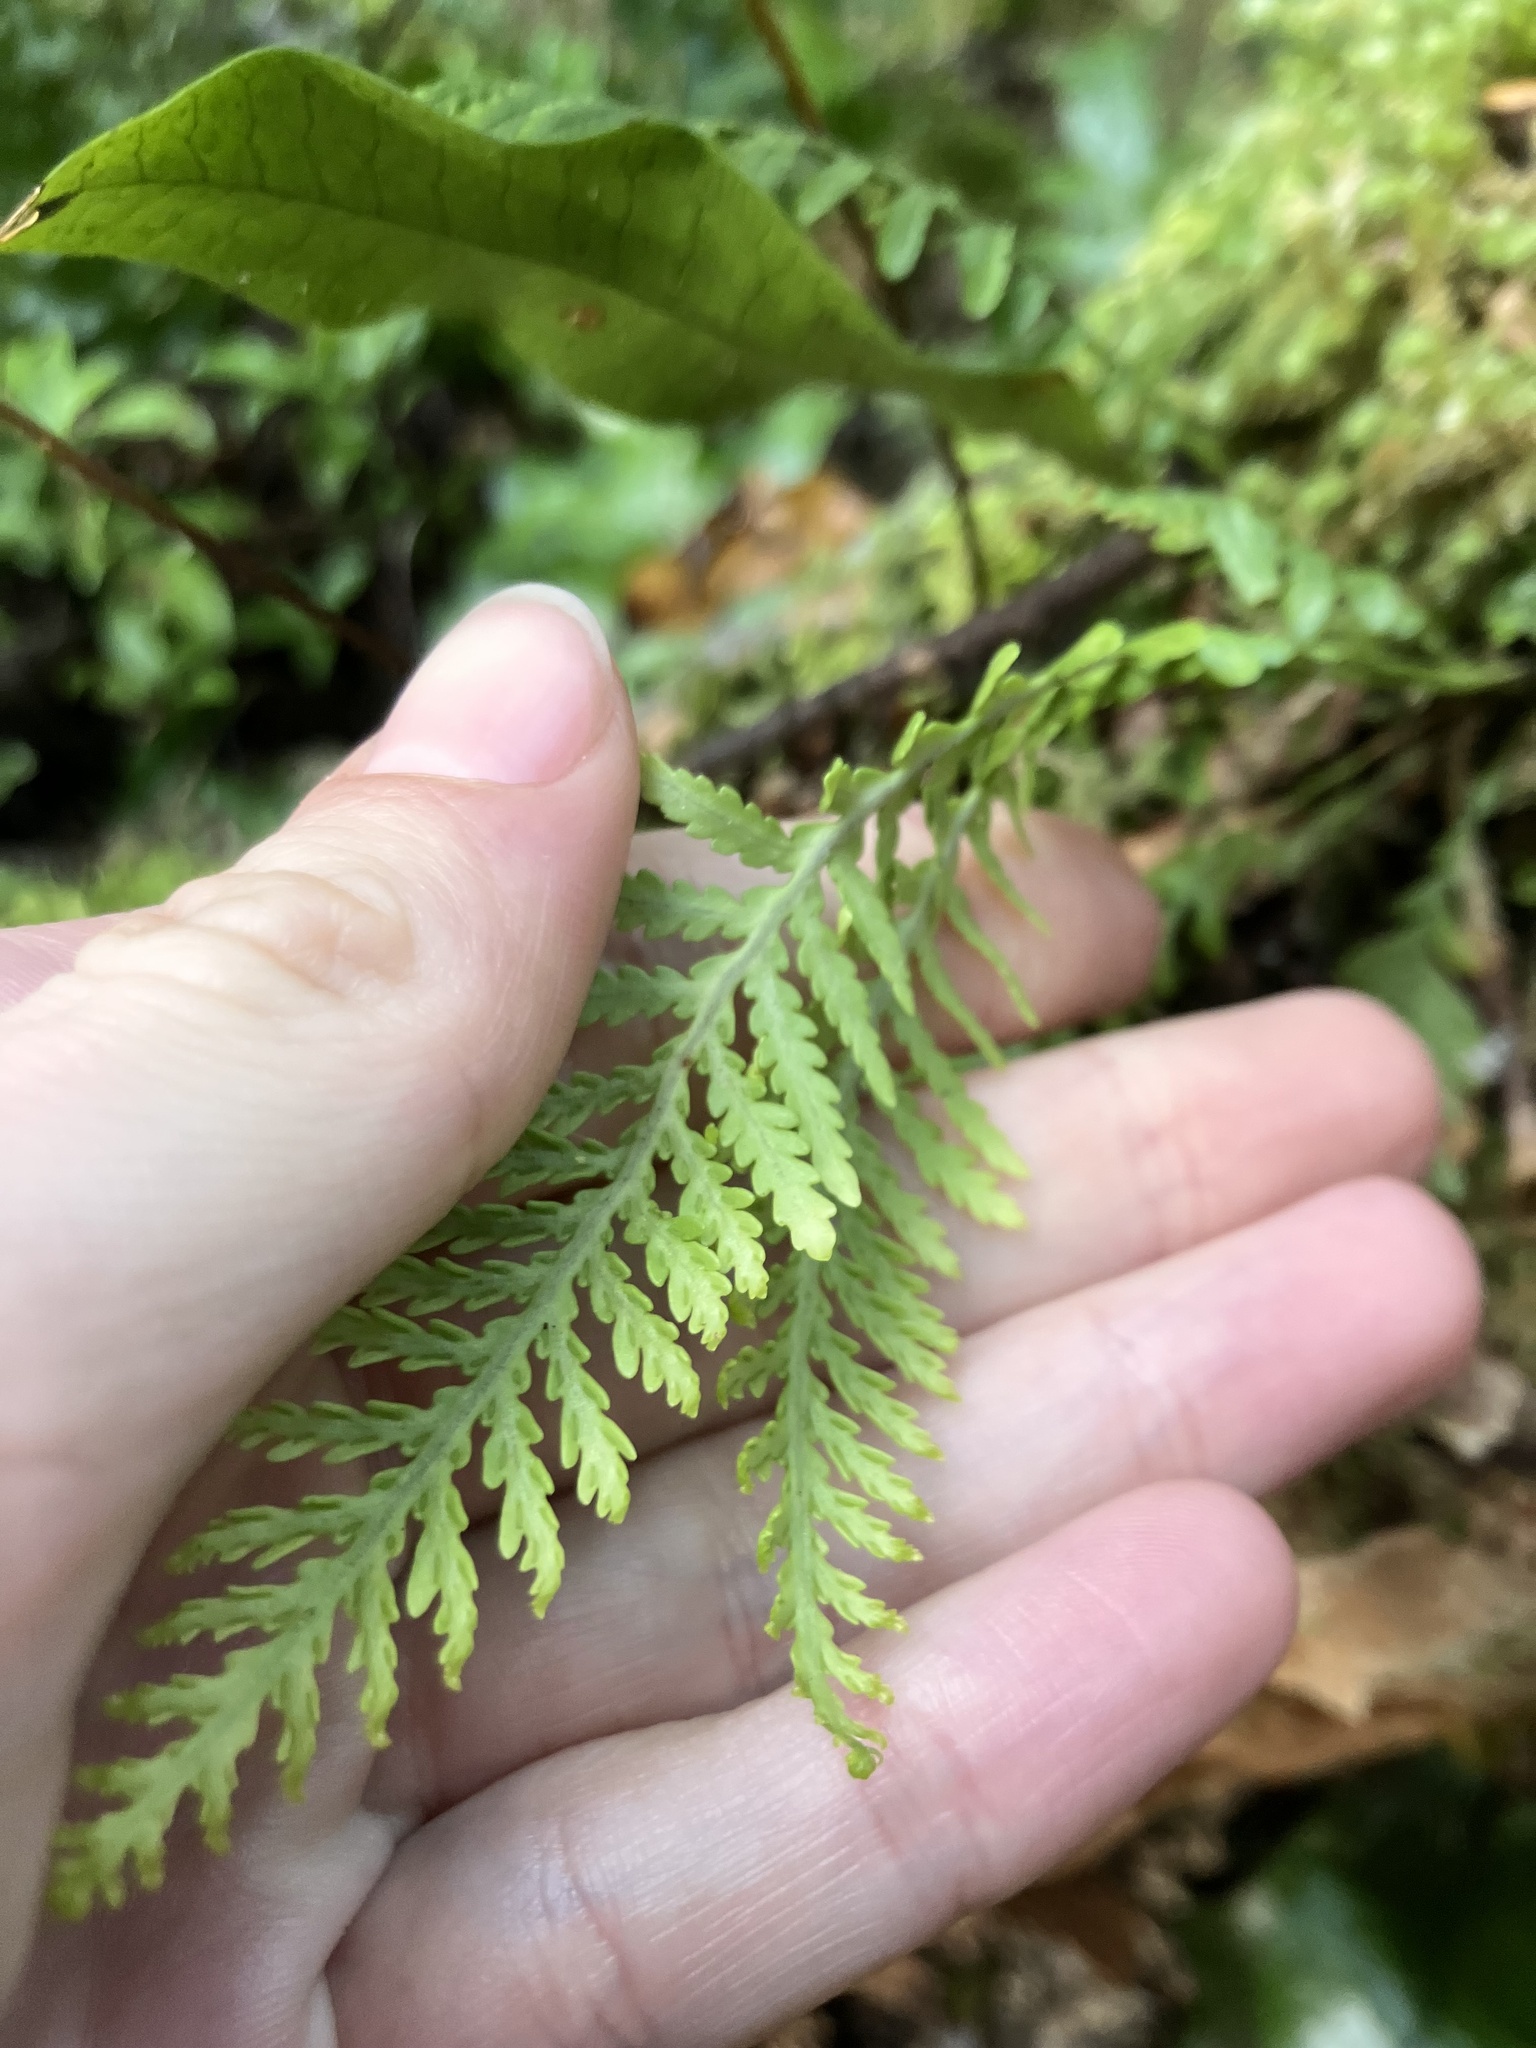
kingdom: Plantae
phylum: Tracheophyta
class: Polypodiopsida
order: Polypodiales
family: Polypodiaceae
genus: Notogrammitis
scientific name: Notogrammitis heterophylla
